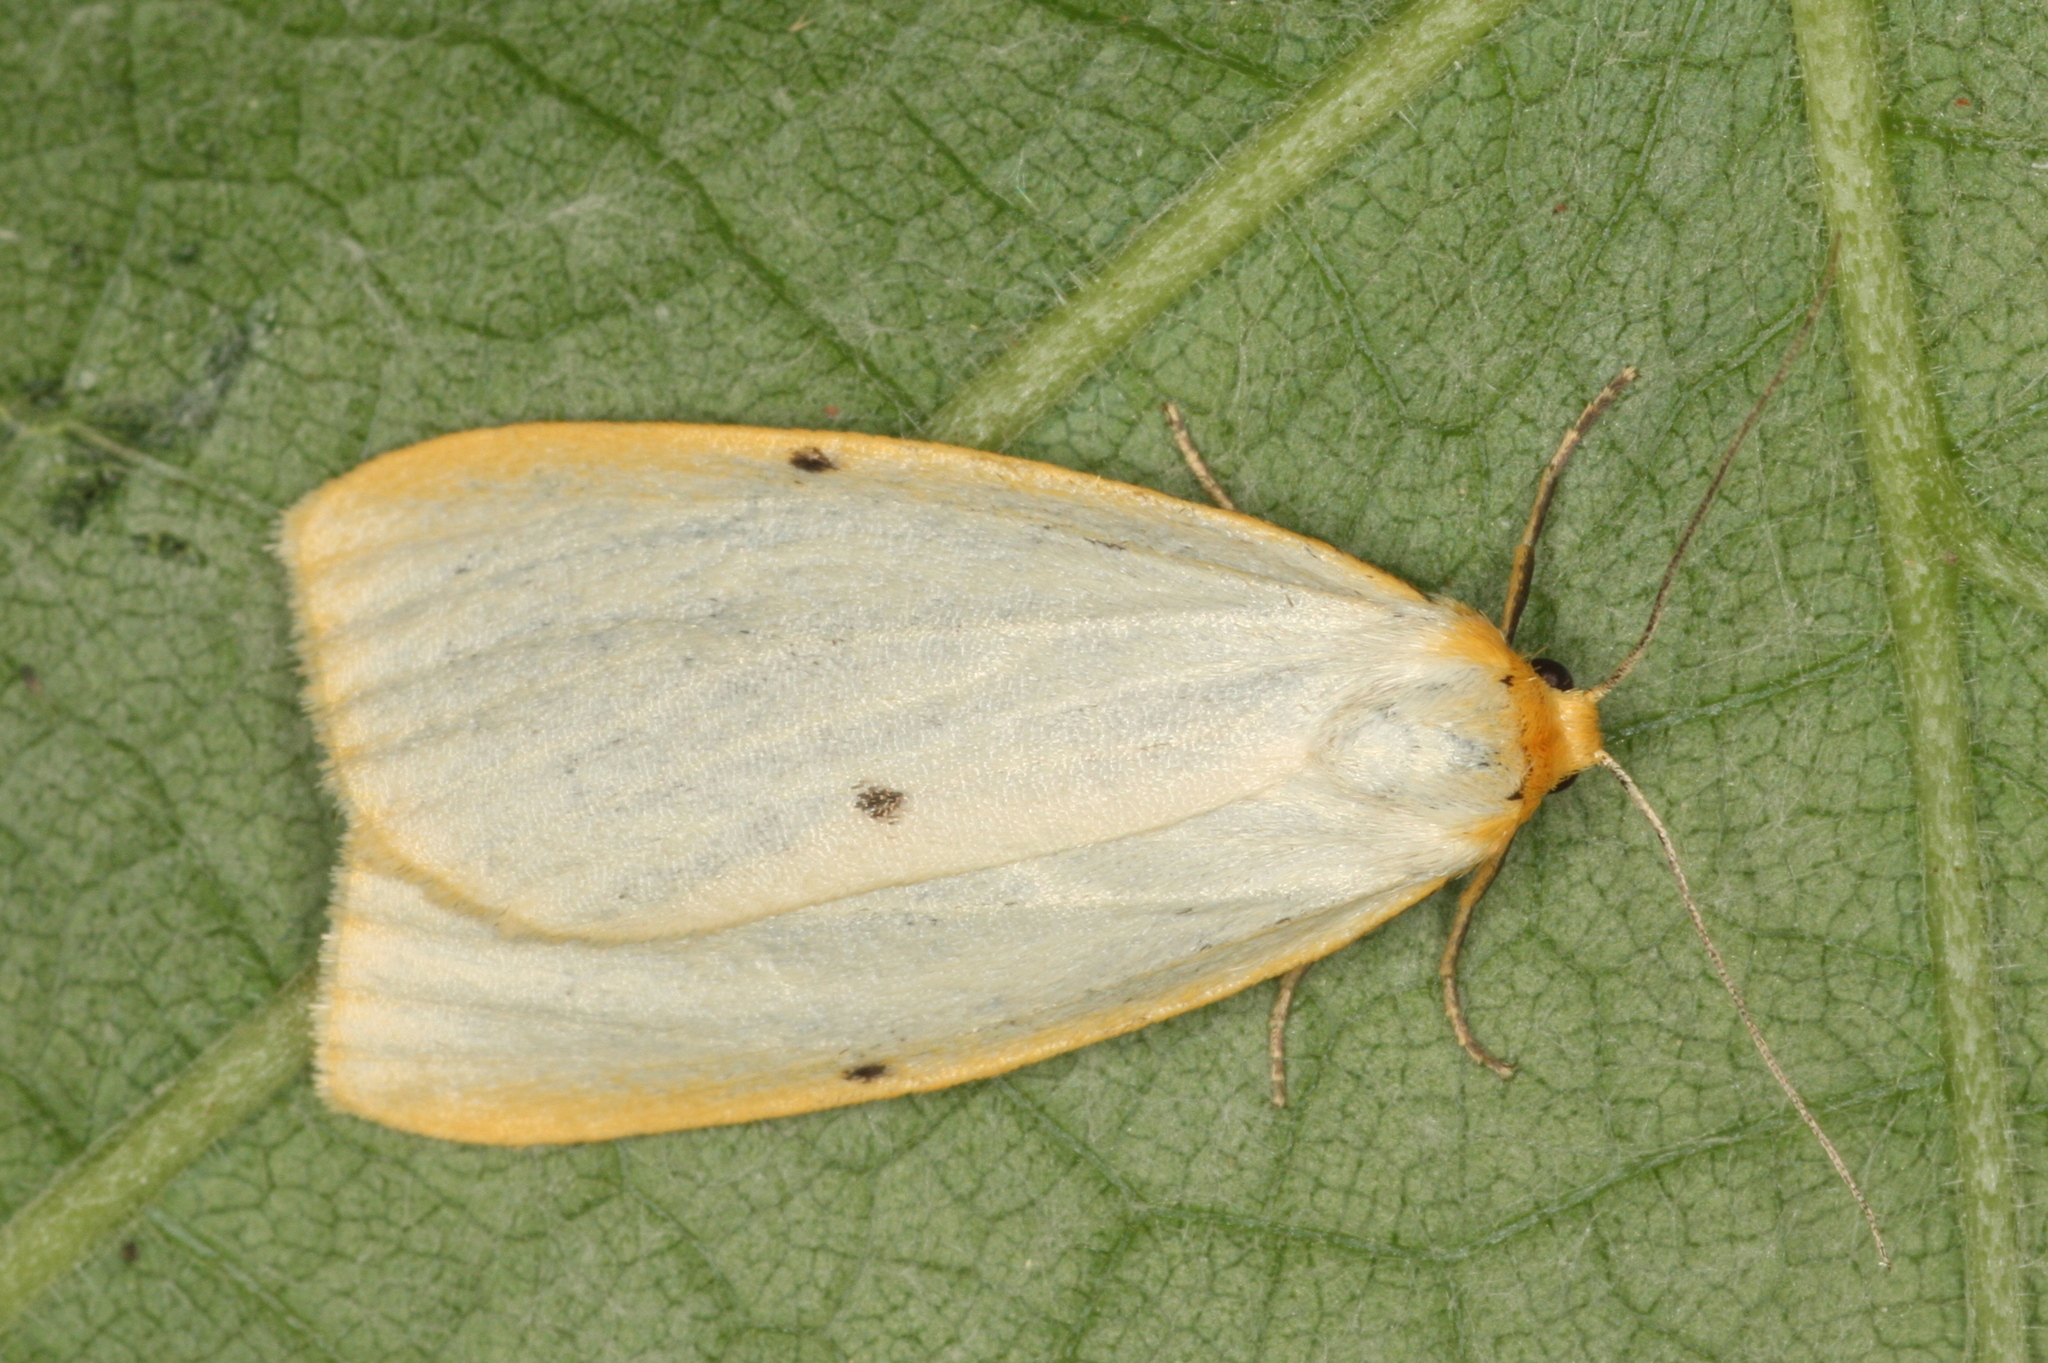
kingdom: Animalia
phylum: Arthropoda
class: Insecta
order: Lepidoptera
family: Erebidae
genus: Cybosia
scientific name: Cybosia mesomella
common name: Four-dotted footman
